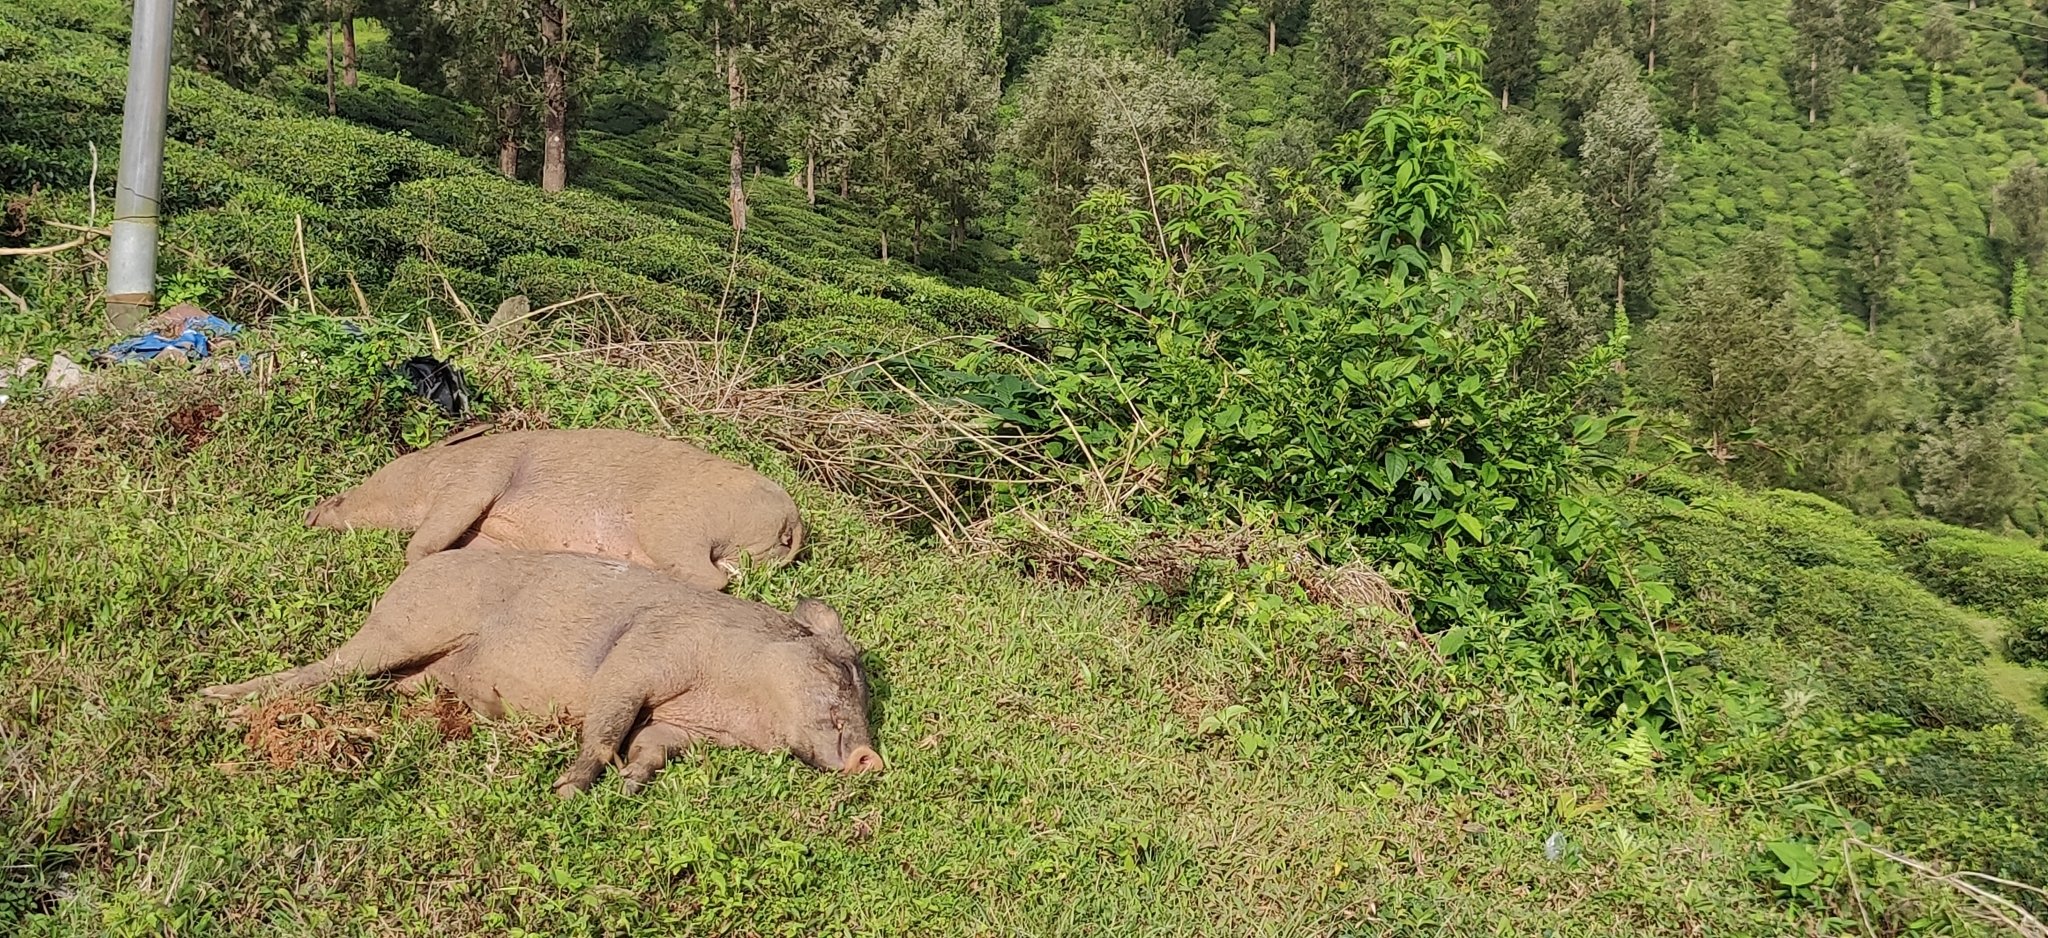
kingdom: Animalia
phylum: Chordata
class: Mammalia
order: Artiodactyla
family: Suidae
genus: Sus
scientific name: Sus scrofa
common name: Wild boar
